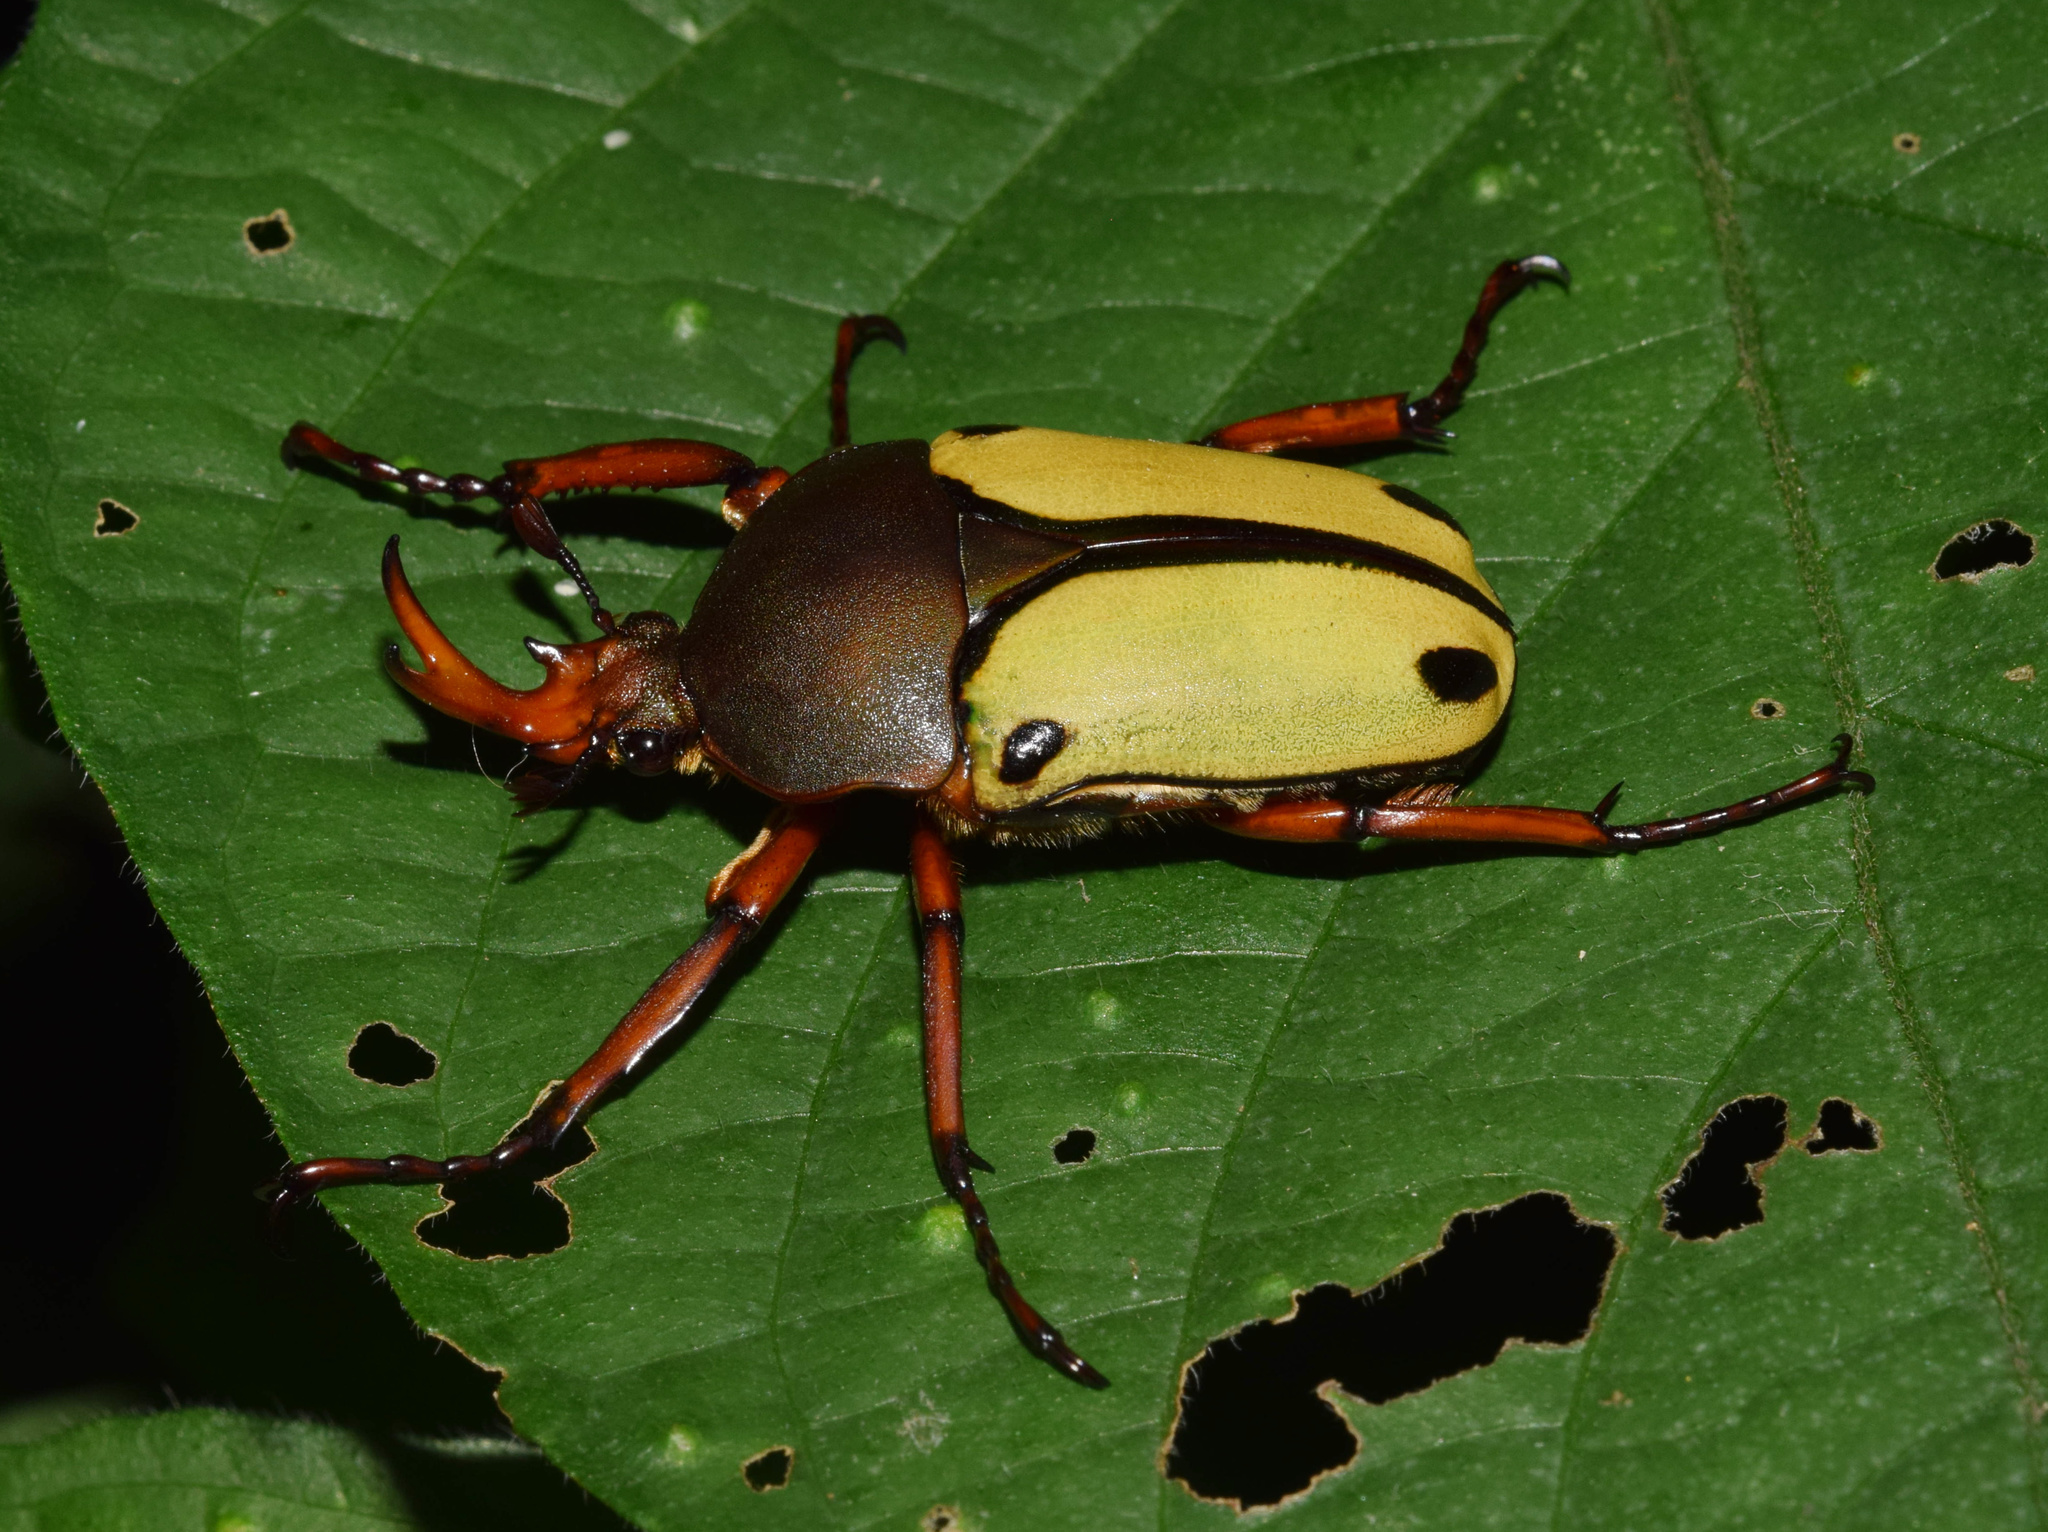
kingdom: Animalia
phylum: Arthropoda
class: Insecta
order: Coleoptera
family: Scarabaeidae
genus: Eudicella
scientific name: Eudicella smithii
